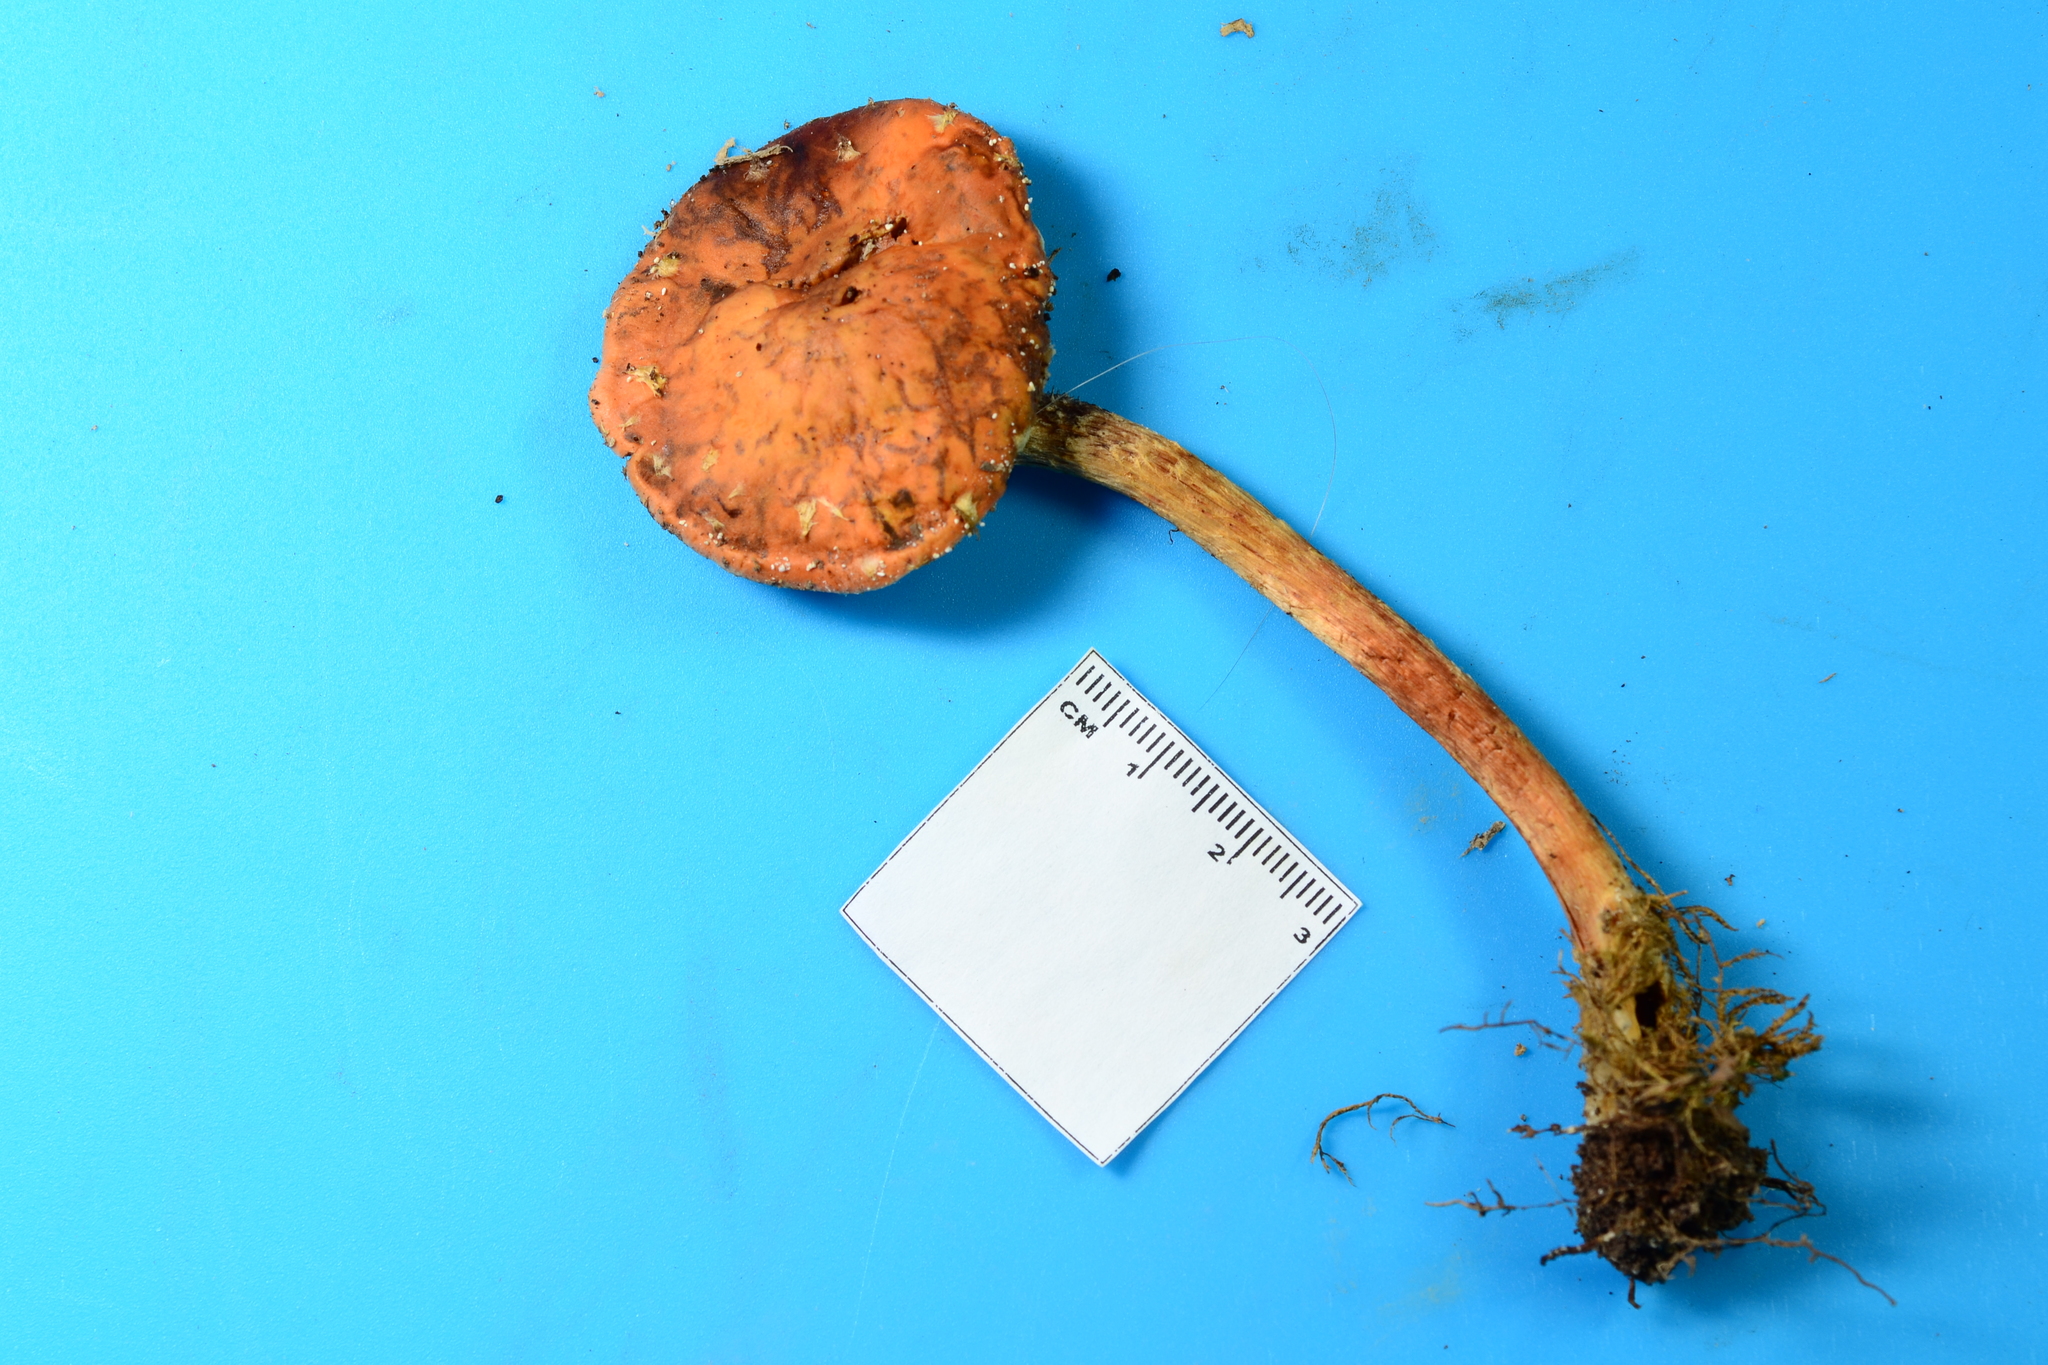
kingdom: Fungi
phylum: Basidiomycota
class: Agaricomycetes
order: Agaricales
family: Strophariaceae
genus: Leratiomyces
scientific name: Leratiomyces squamosus
